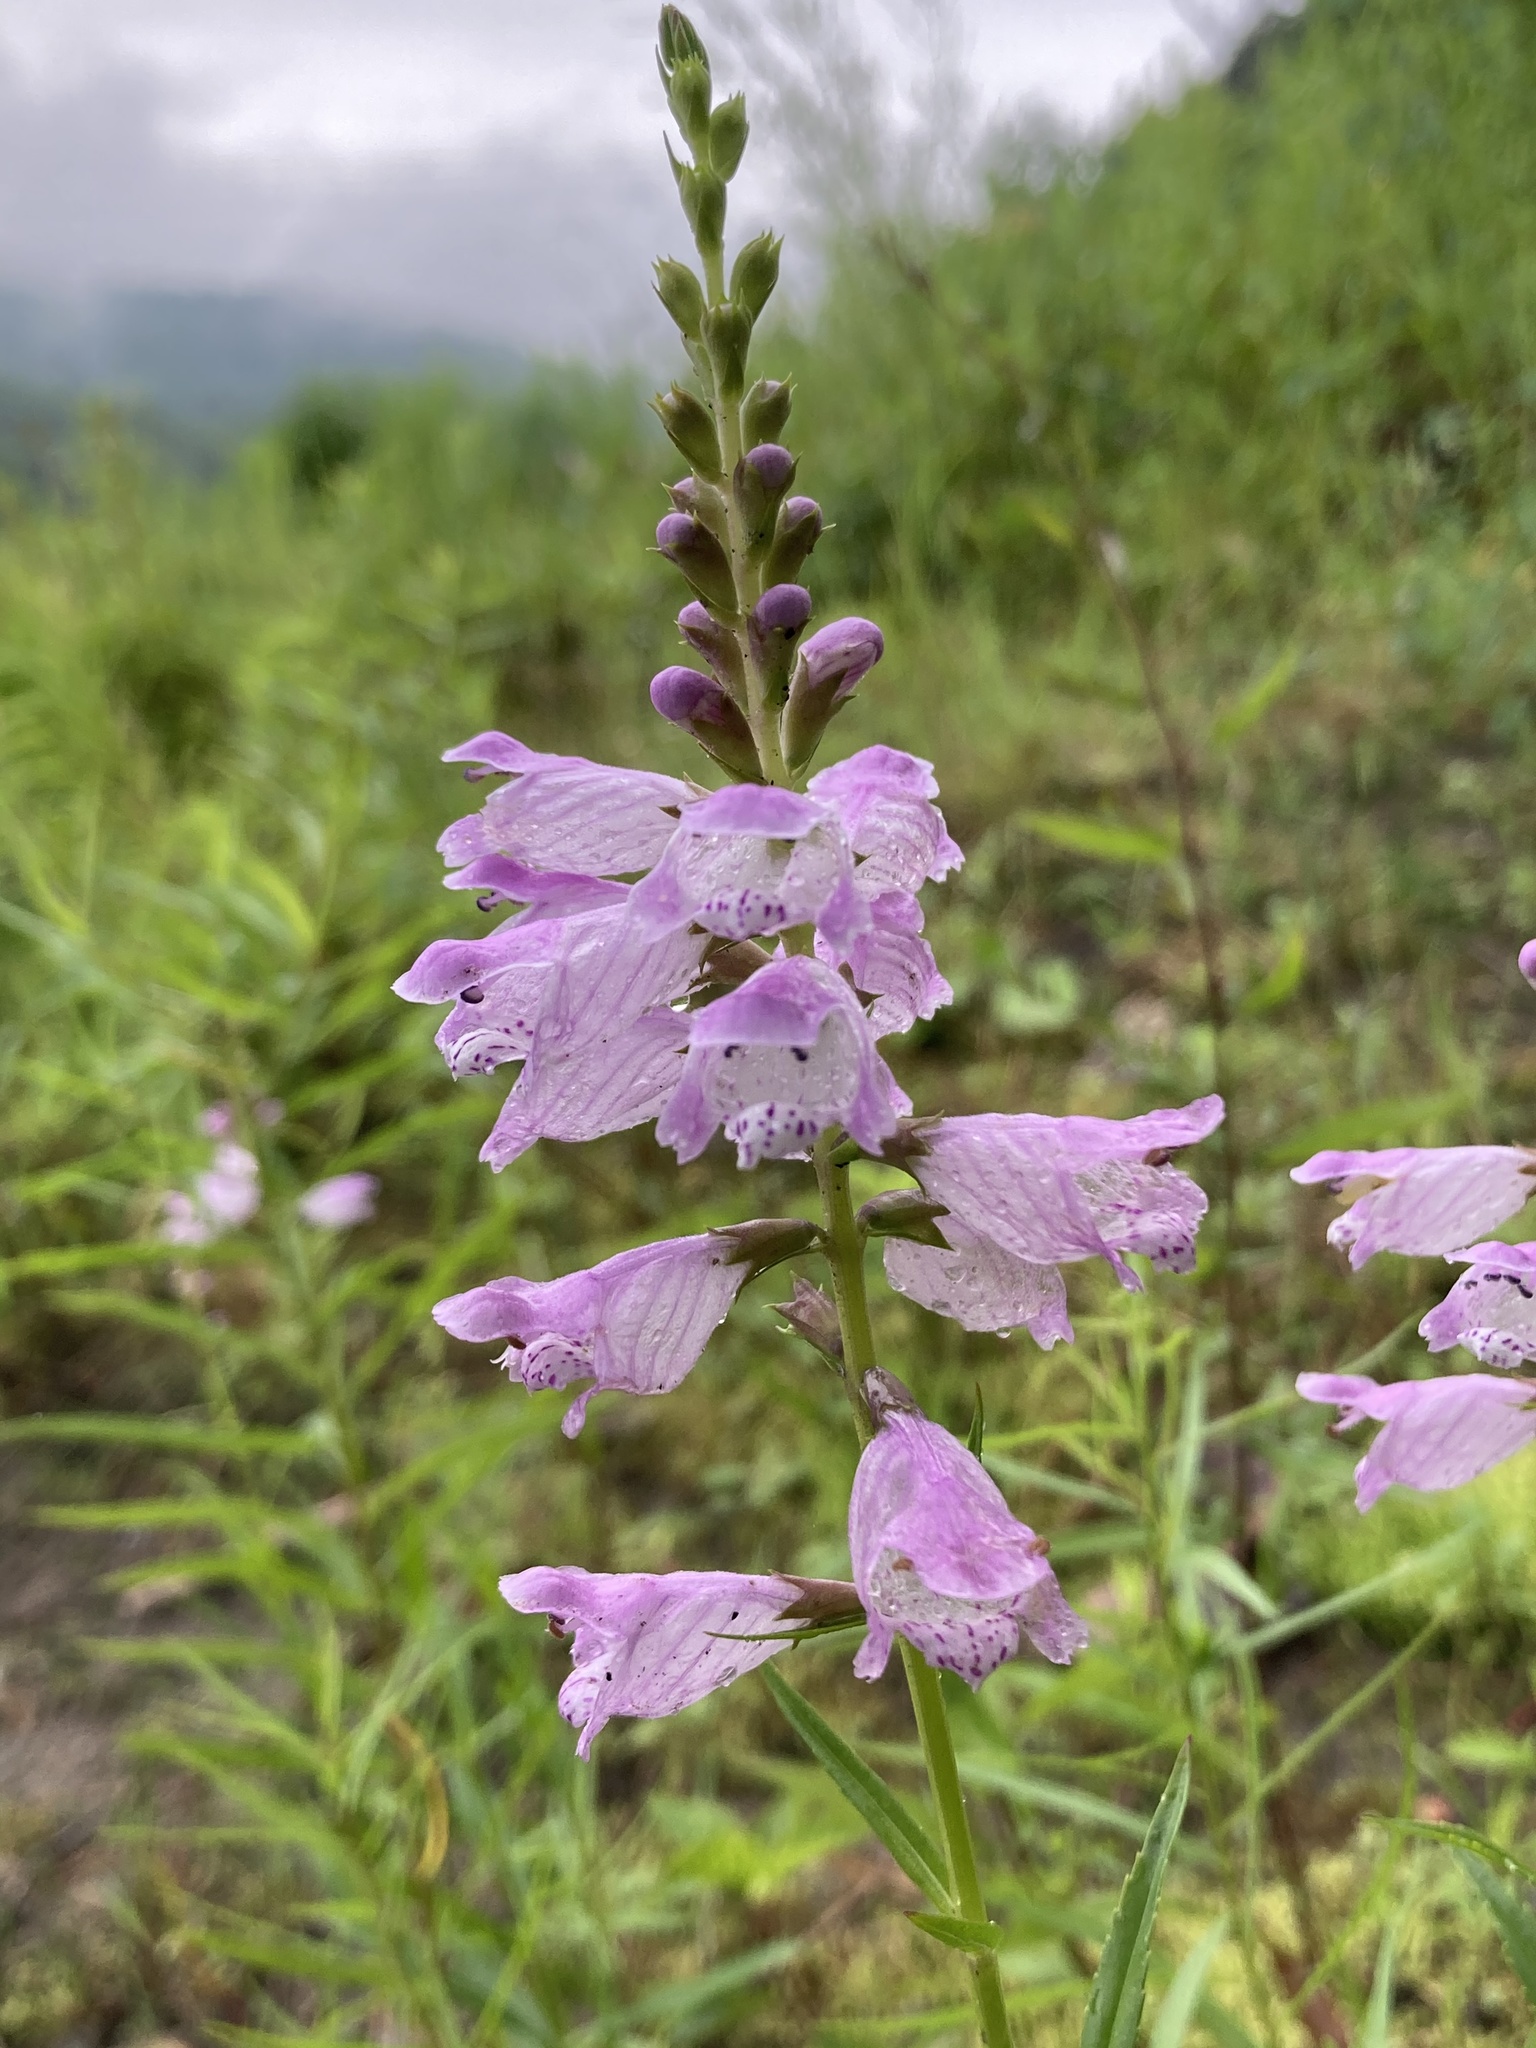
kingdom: Plantae
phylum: Tracheophyta
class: Magnoliopsida
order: Lamiales
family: Lamiaceae
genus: Physostegia
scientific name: Physostegia virginiana
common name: Obedient-plant
